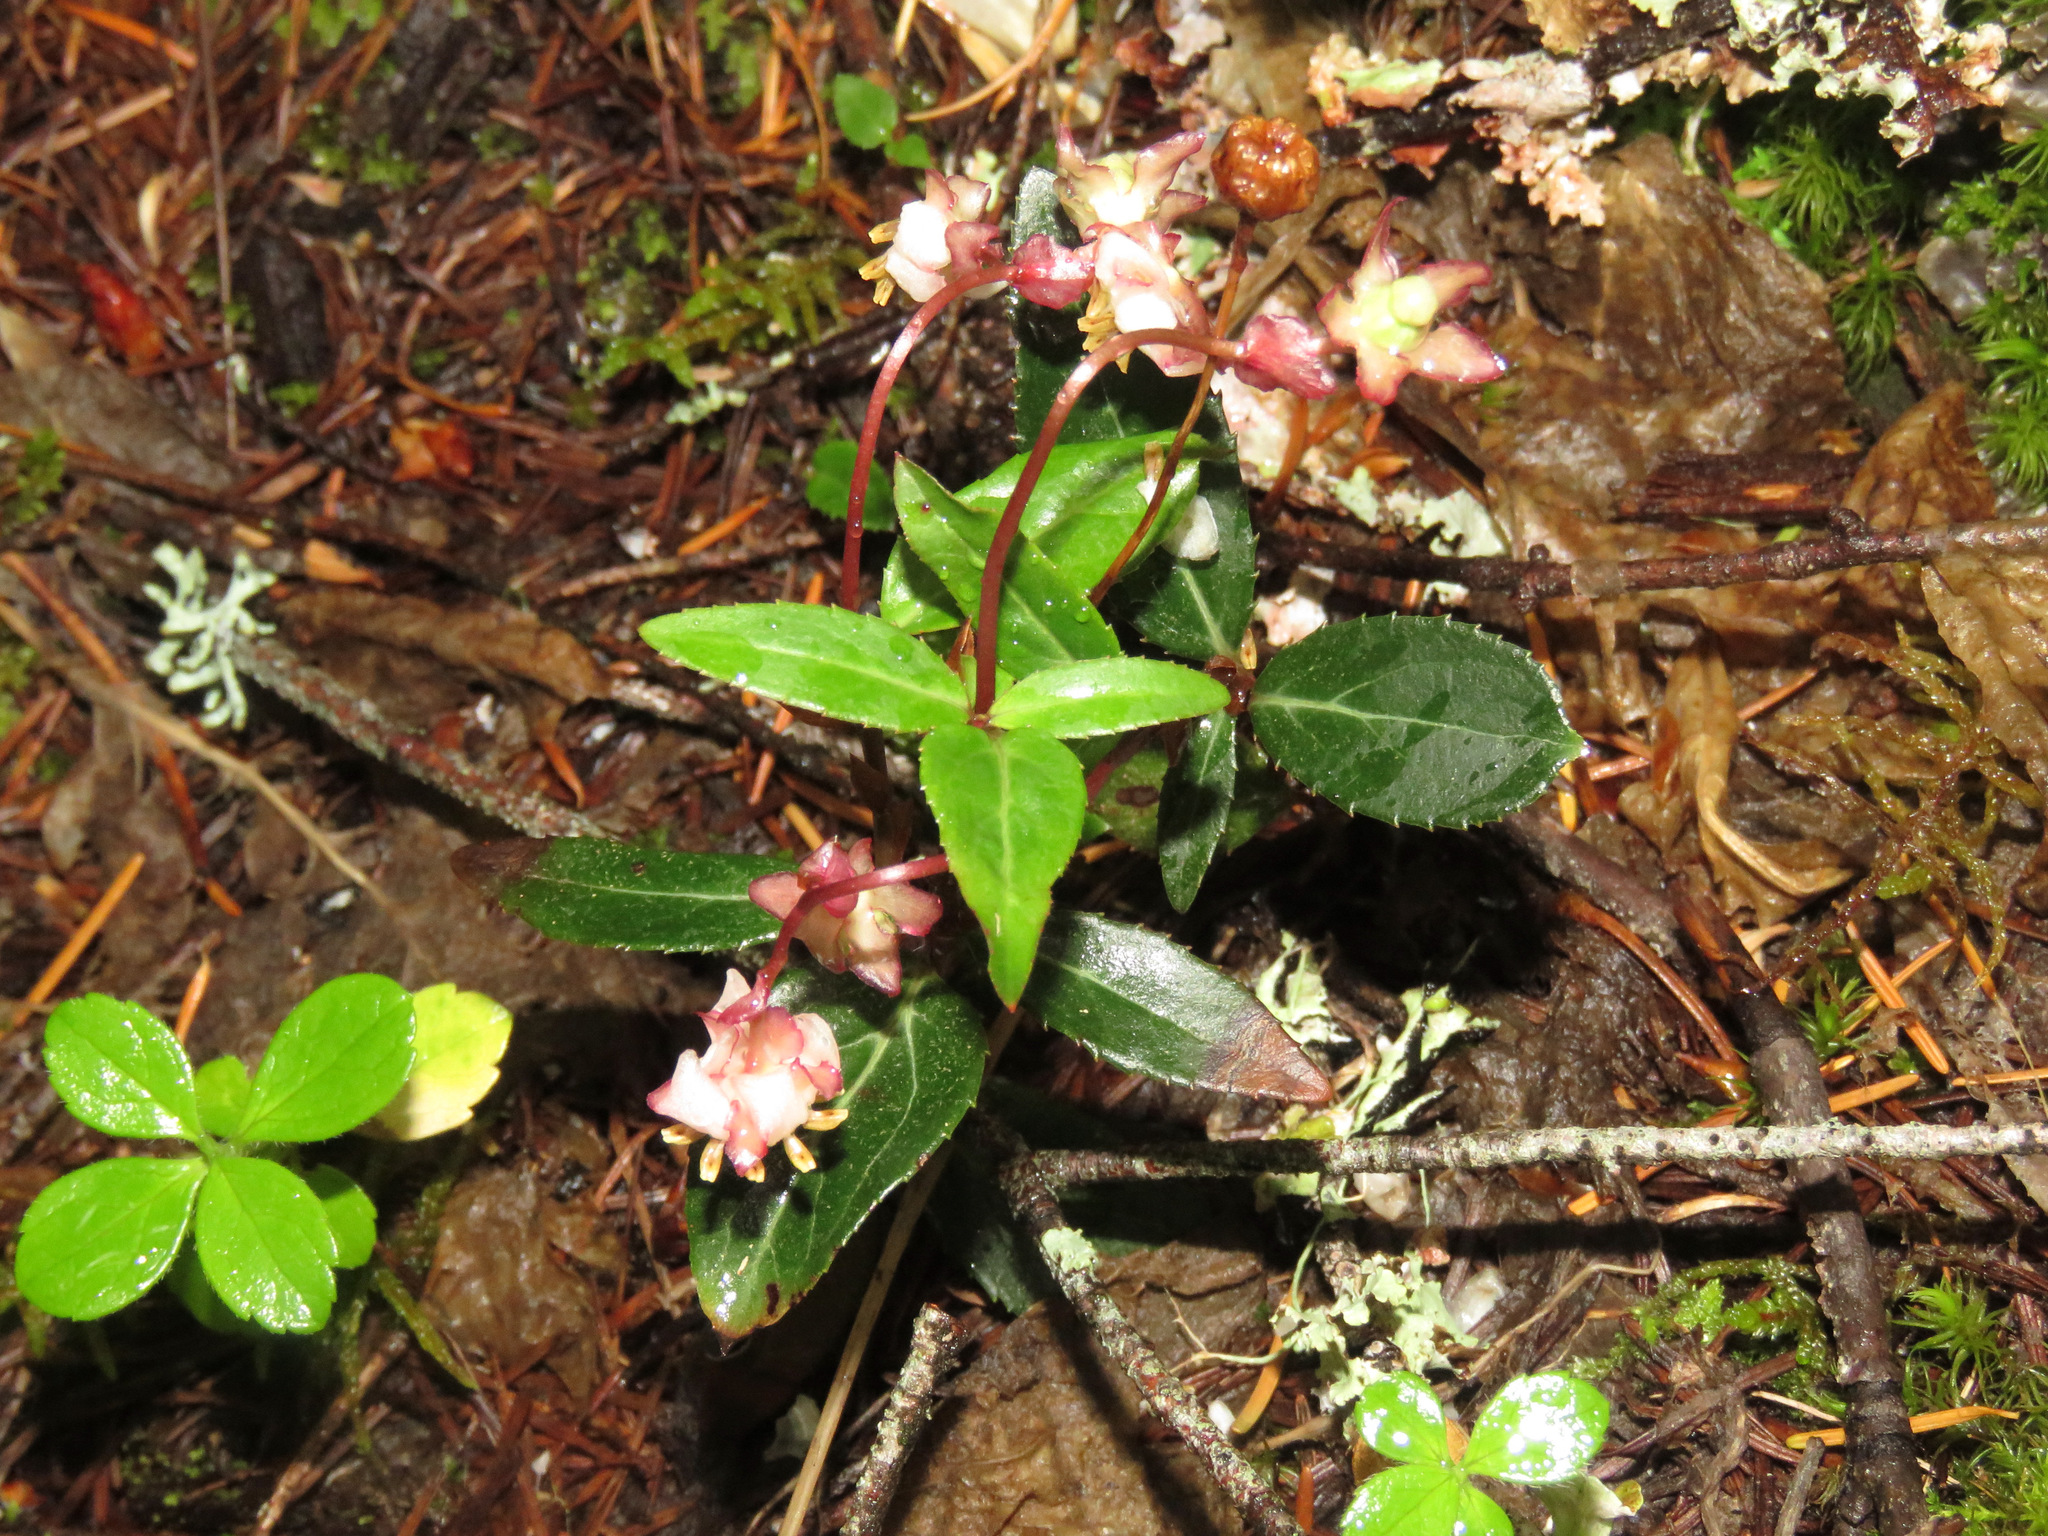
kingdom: Plantae
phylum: Tracheophyta
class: Magnoliopsida
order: Ericales
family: Ericaceae
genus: Chimaphila
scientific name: Chimaphila menziesii
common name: Menzies' pipsissewa
